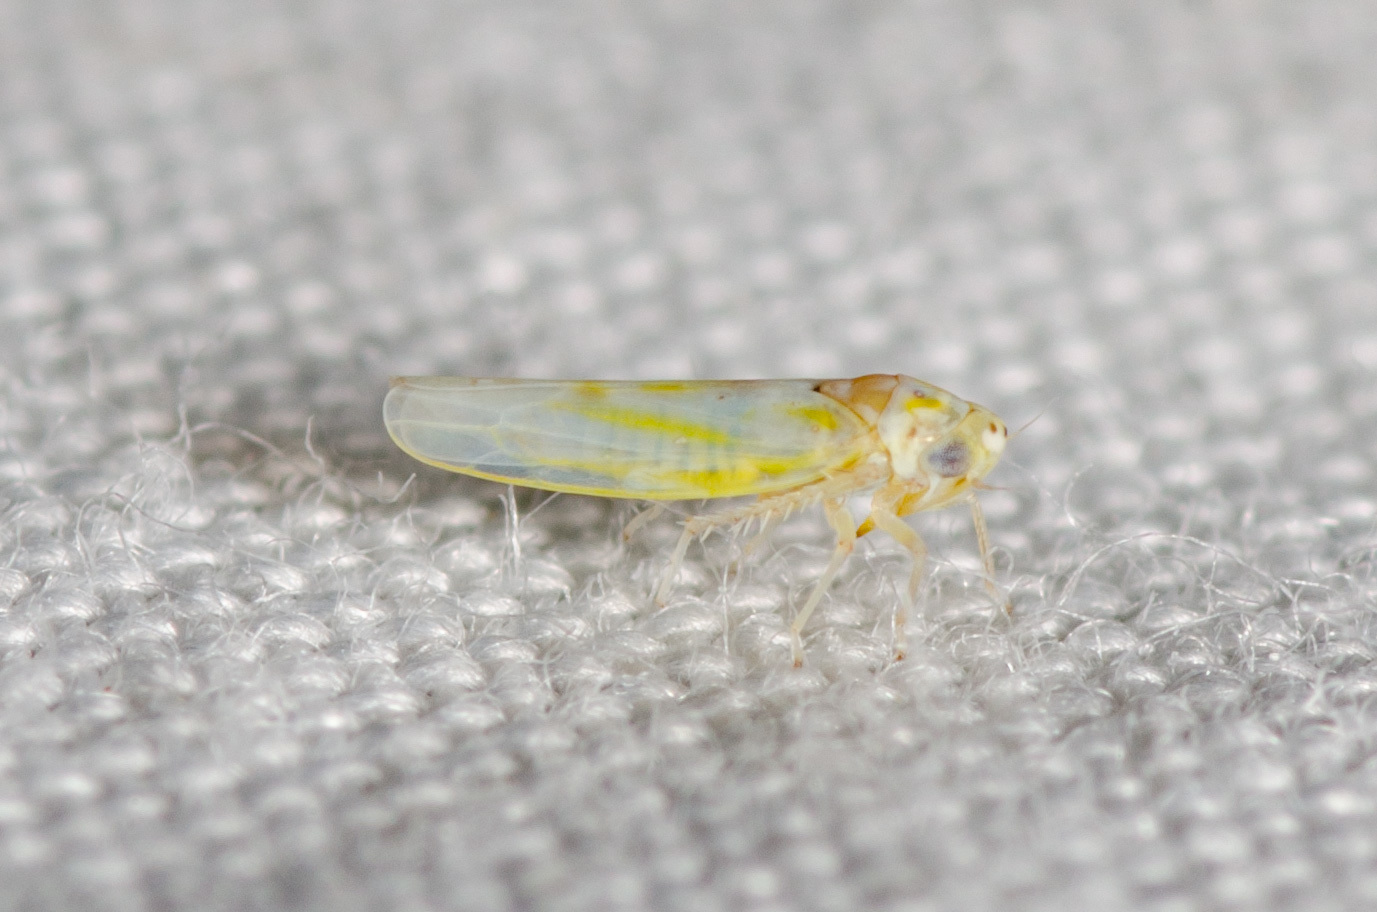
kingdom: Animalia
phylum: Arthropoda
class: Insecta
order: Hemiptera
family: Cicadellidae
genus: Zyginama
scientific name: Zyginama tripunctata
